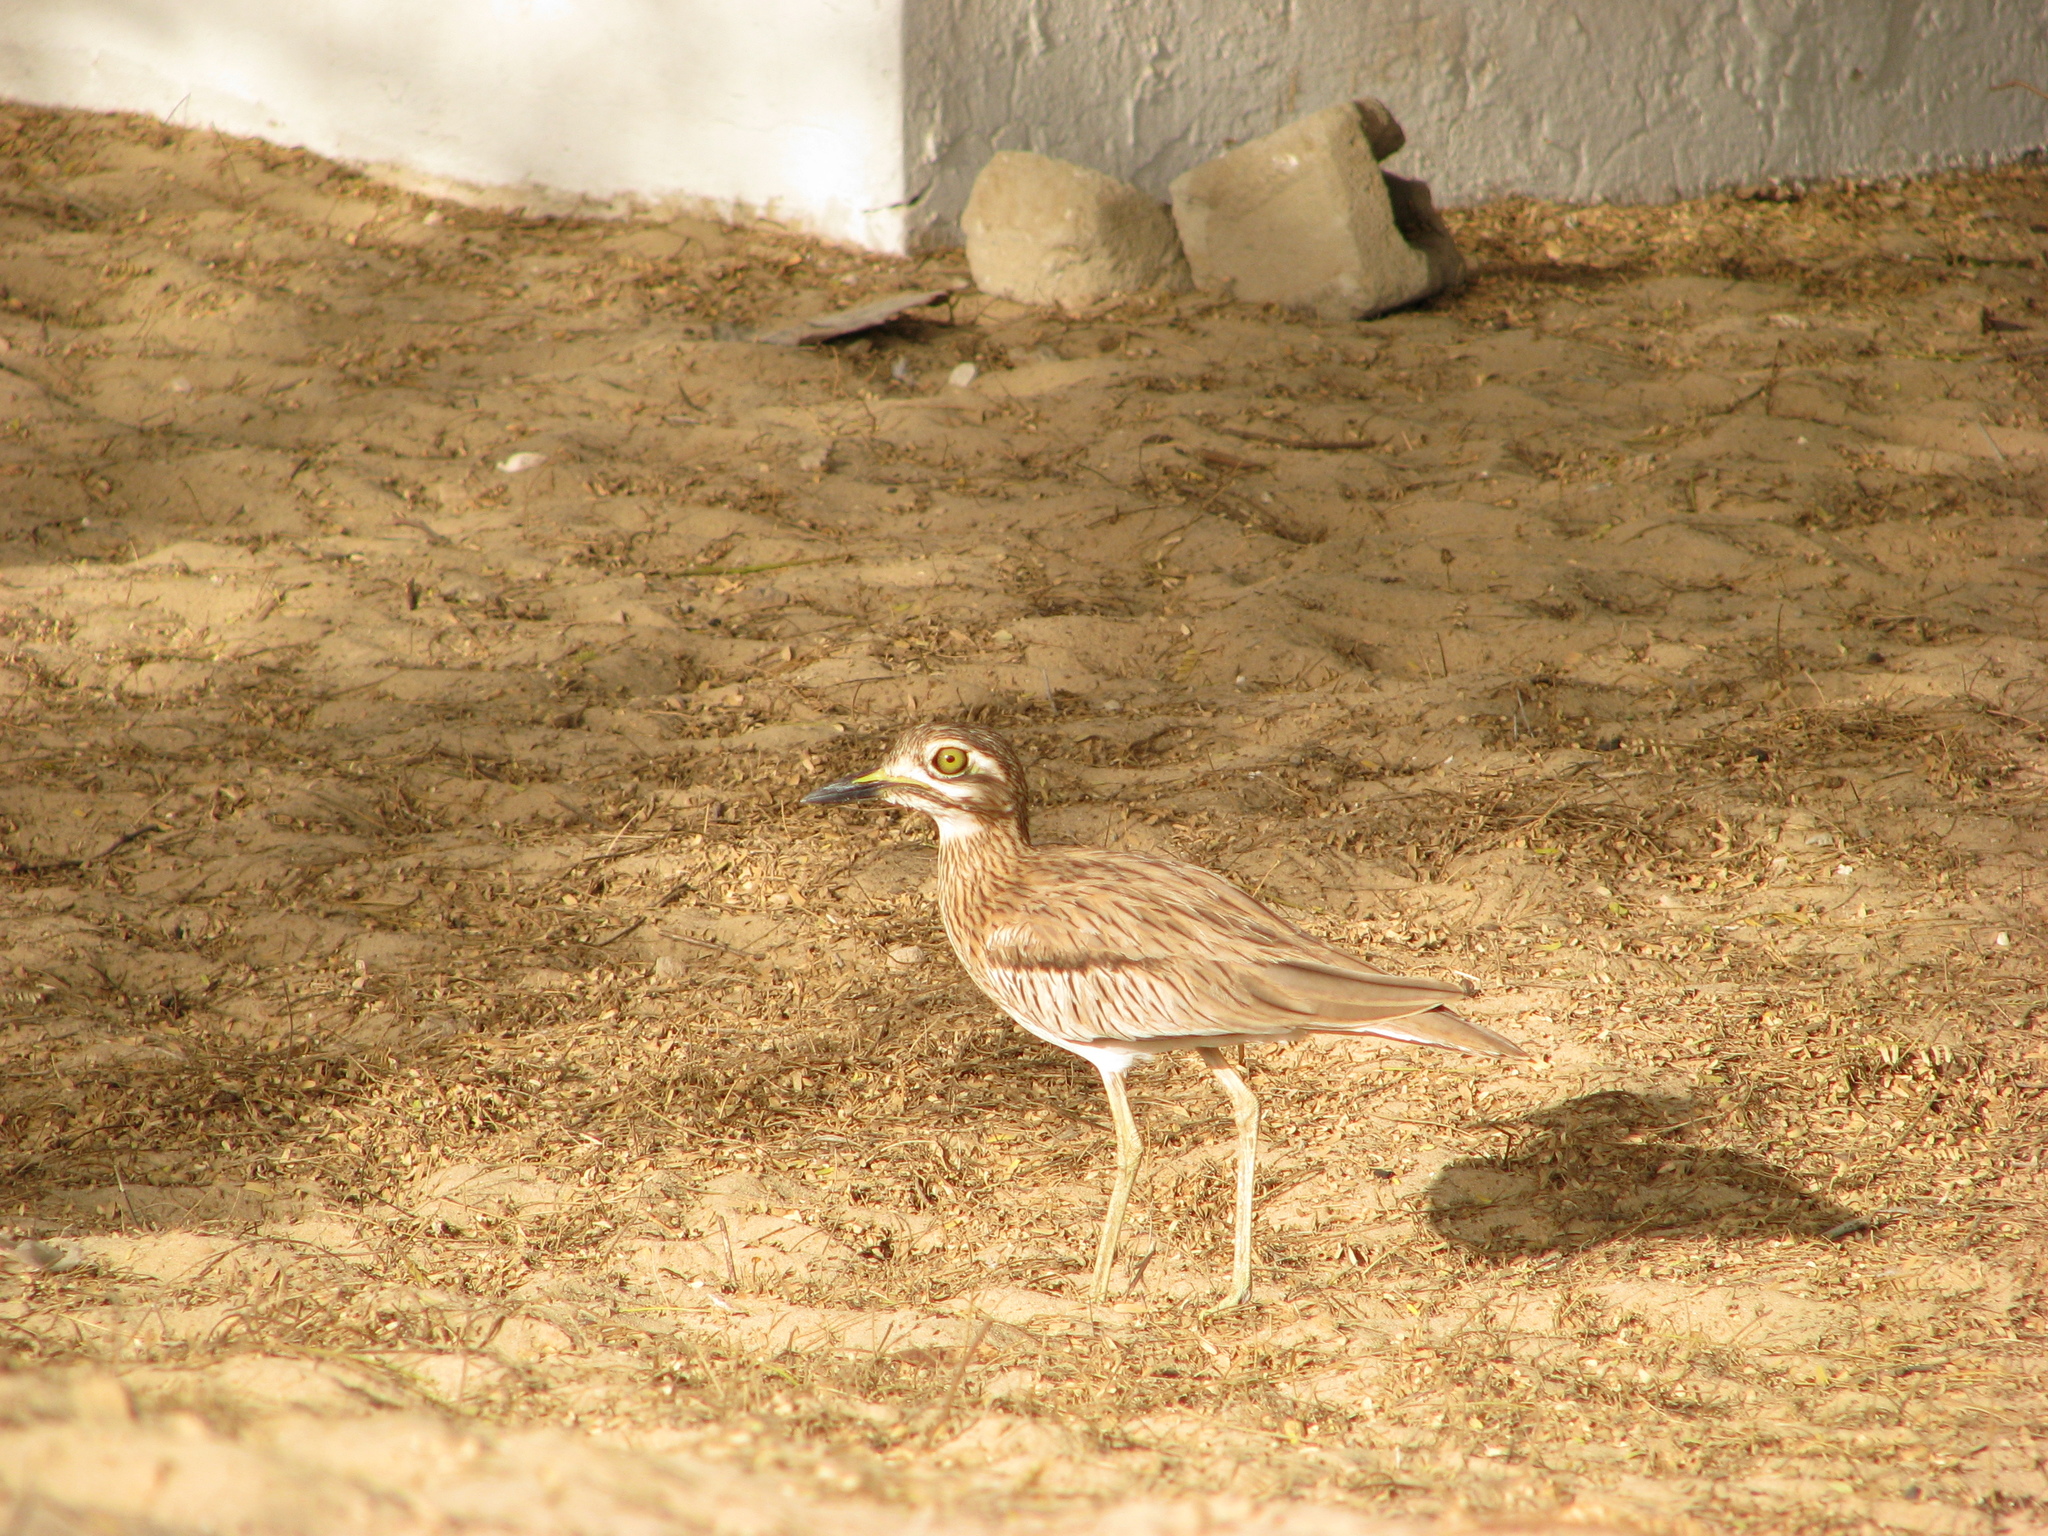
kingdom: Animalia
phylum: Chordata
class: Aves
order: Charadriiformes
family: Burhinidae
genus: Burhinus
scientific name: Burhinus senegalensis
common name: Senegal thick-knee
